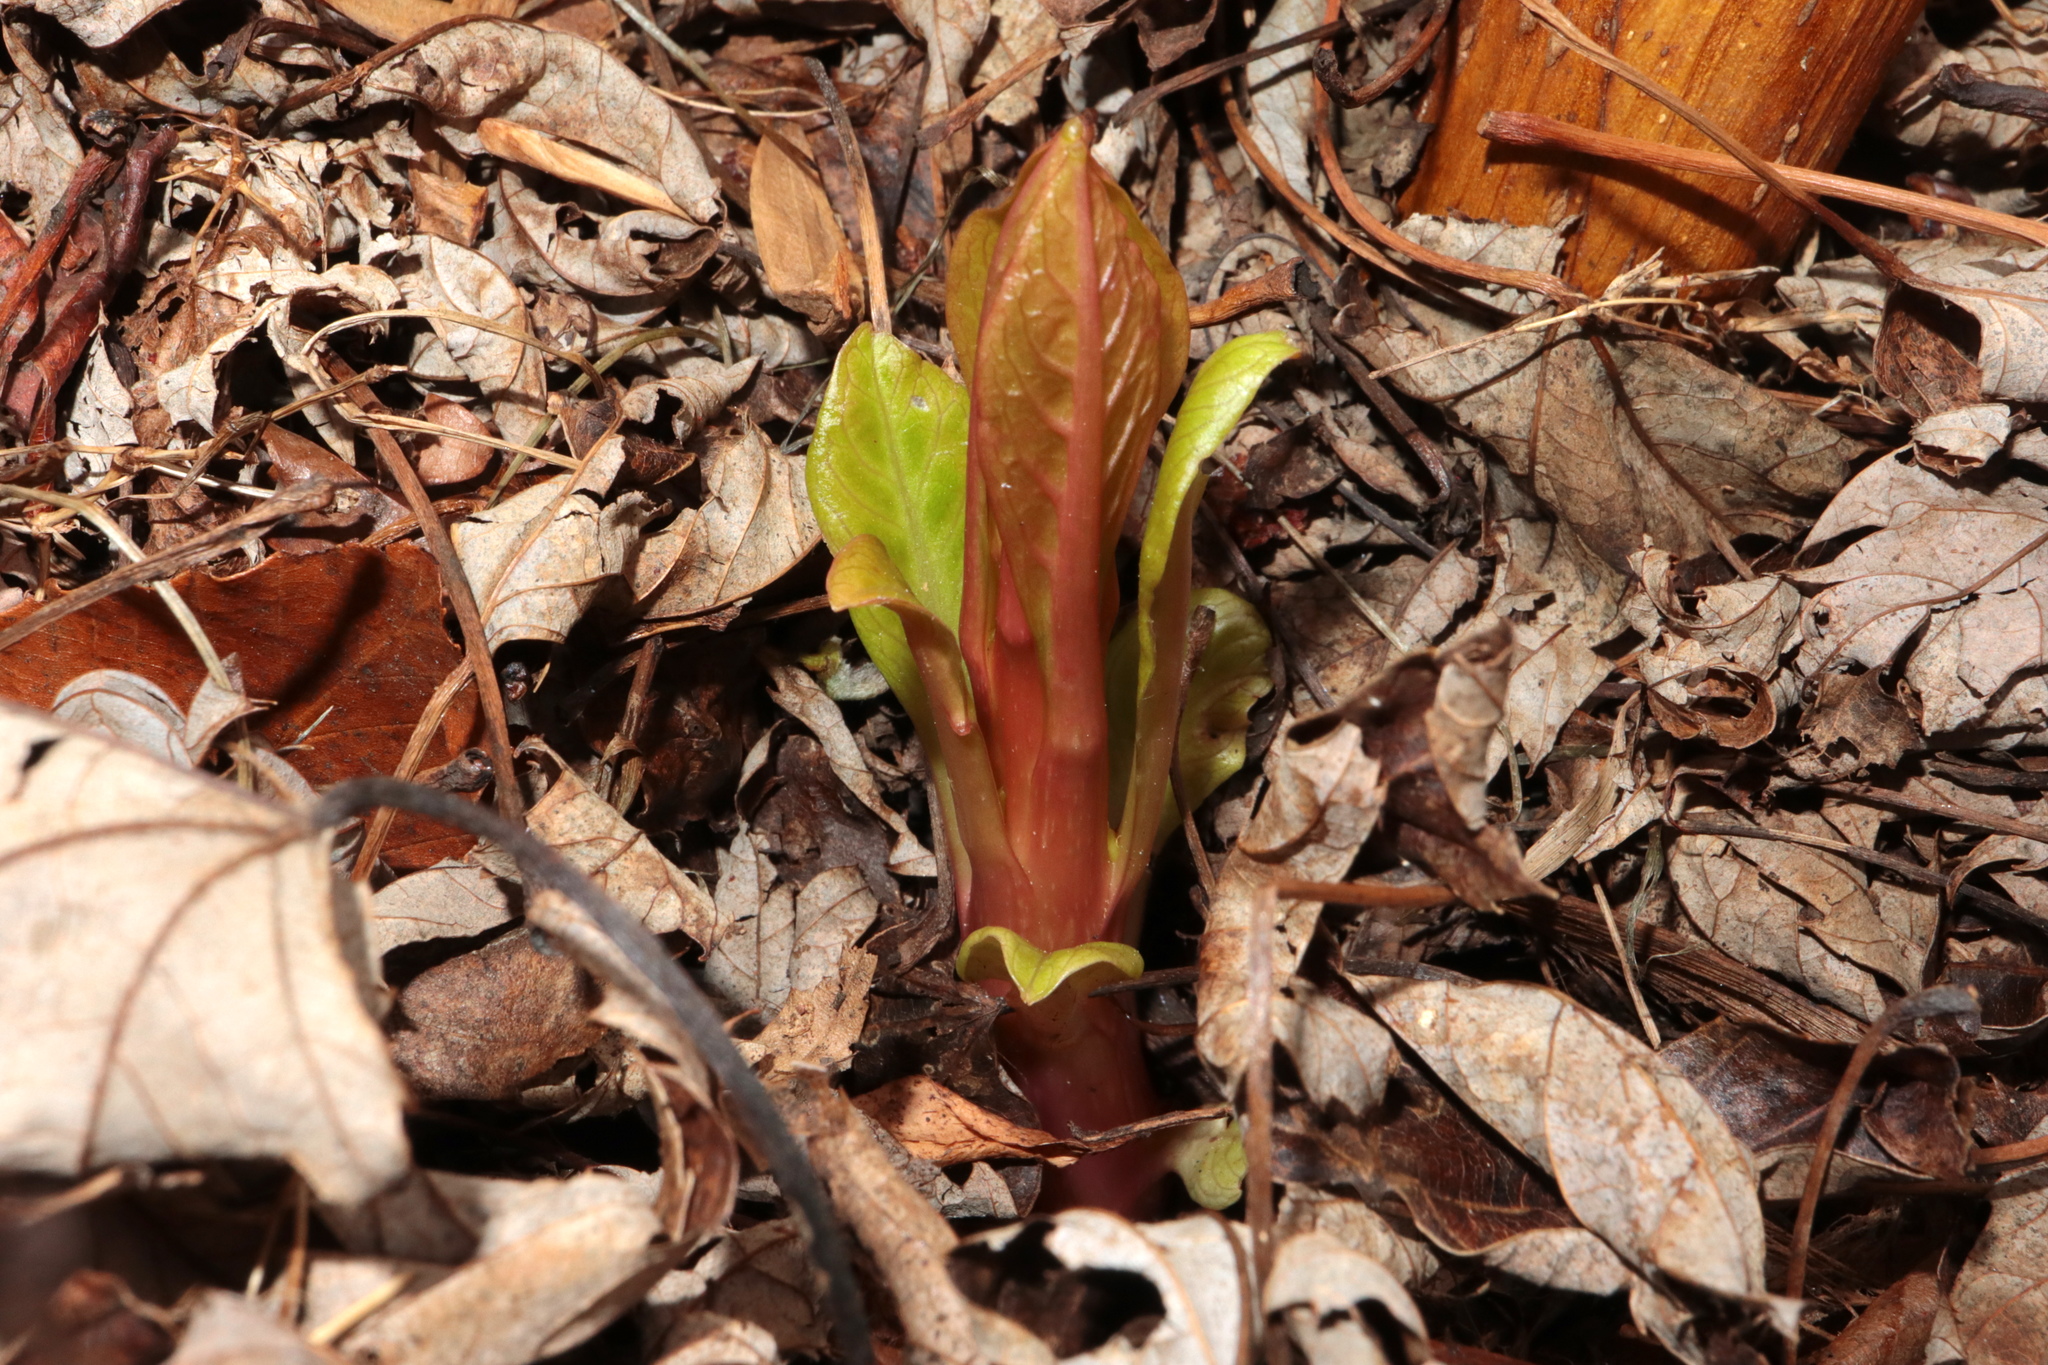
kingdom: Plantae
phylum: Tracheophyta
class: Magnoliopsida
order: Caryophyllales
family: Phytolaccaceae
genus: Phytolacca
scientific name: Phytolacca americana
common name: American pokeweed
